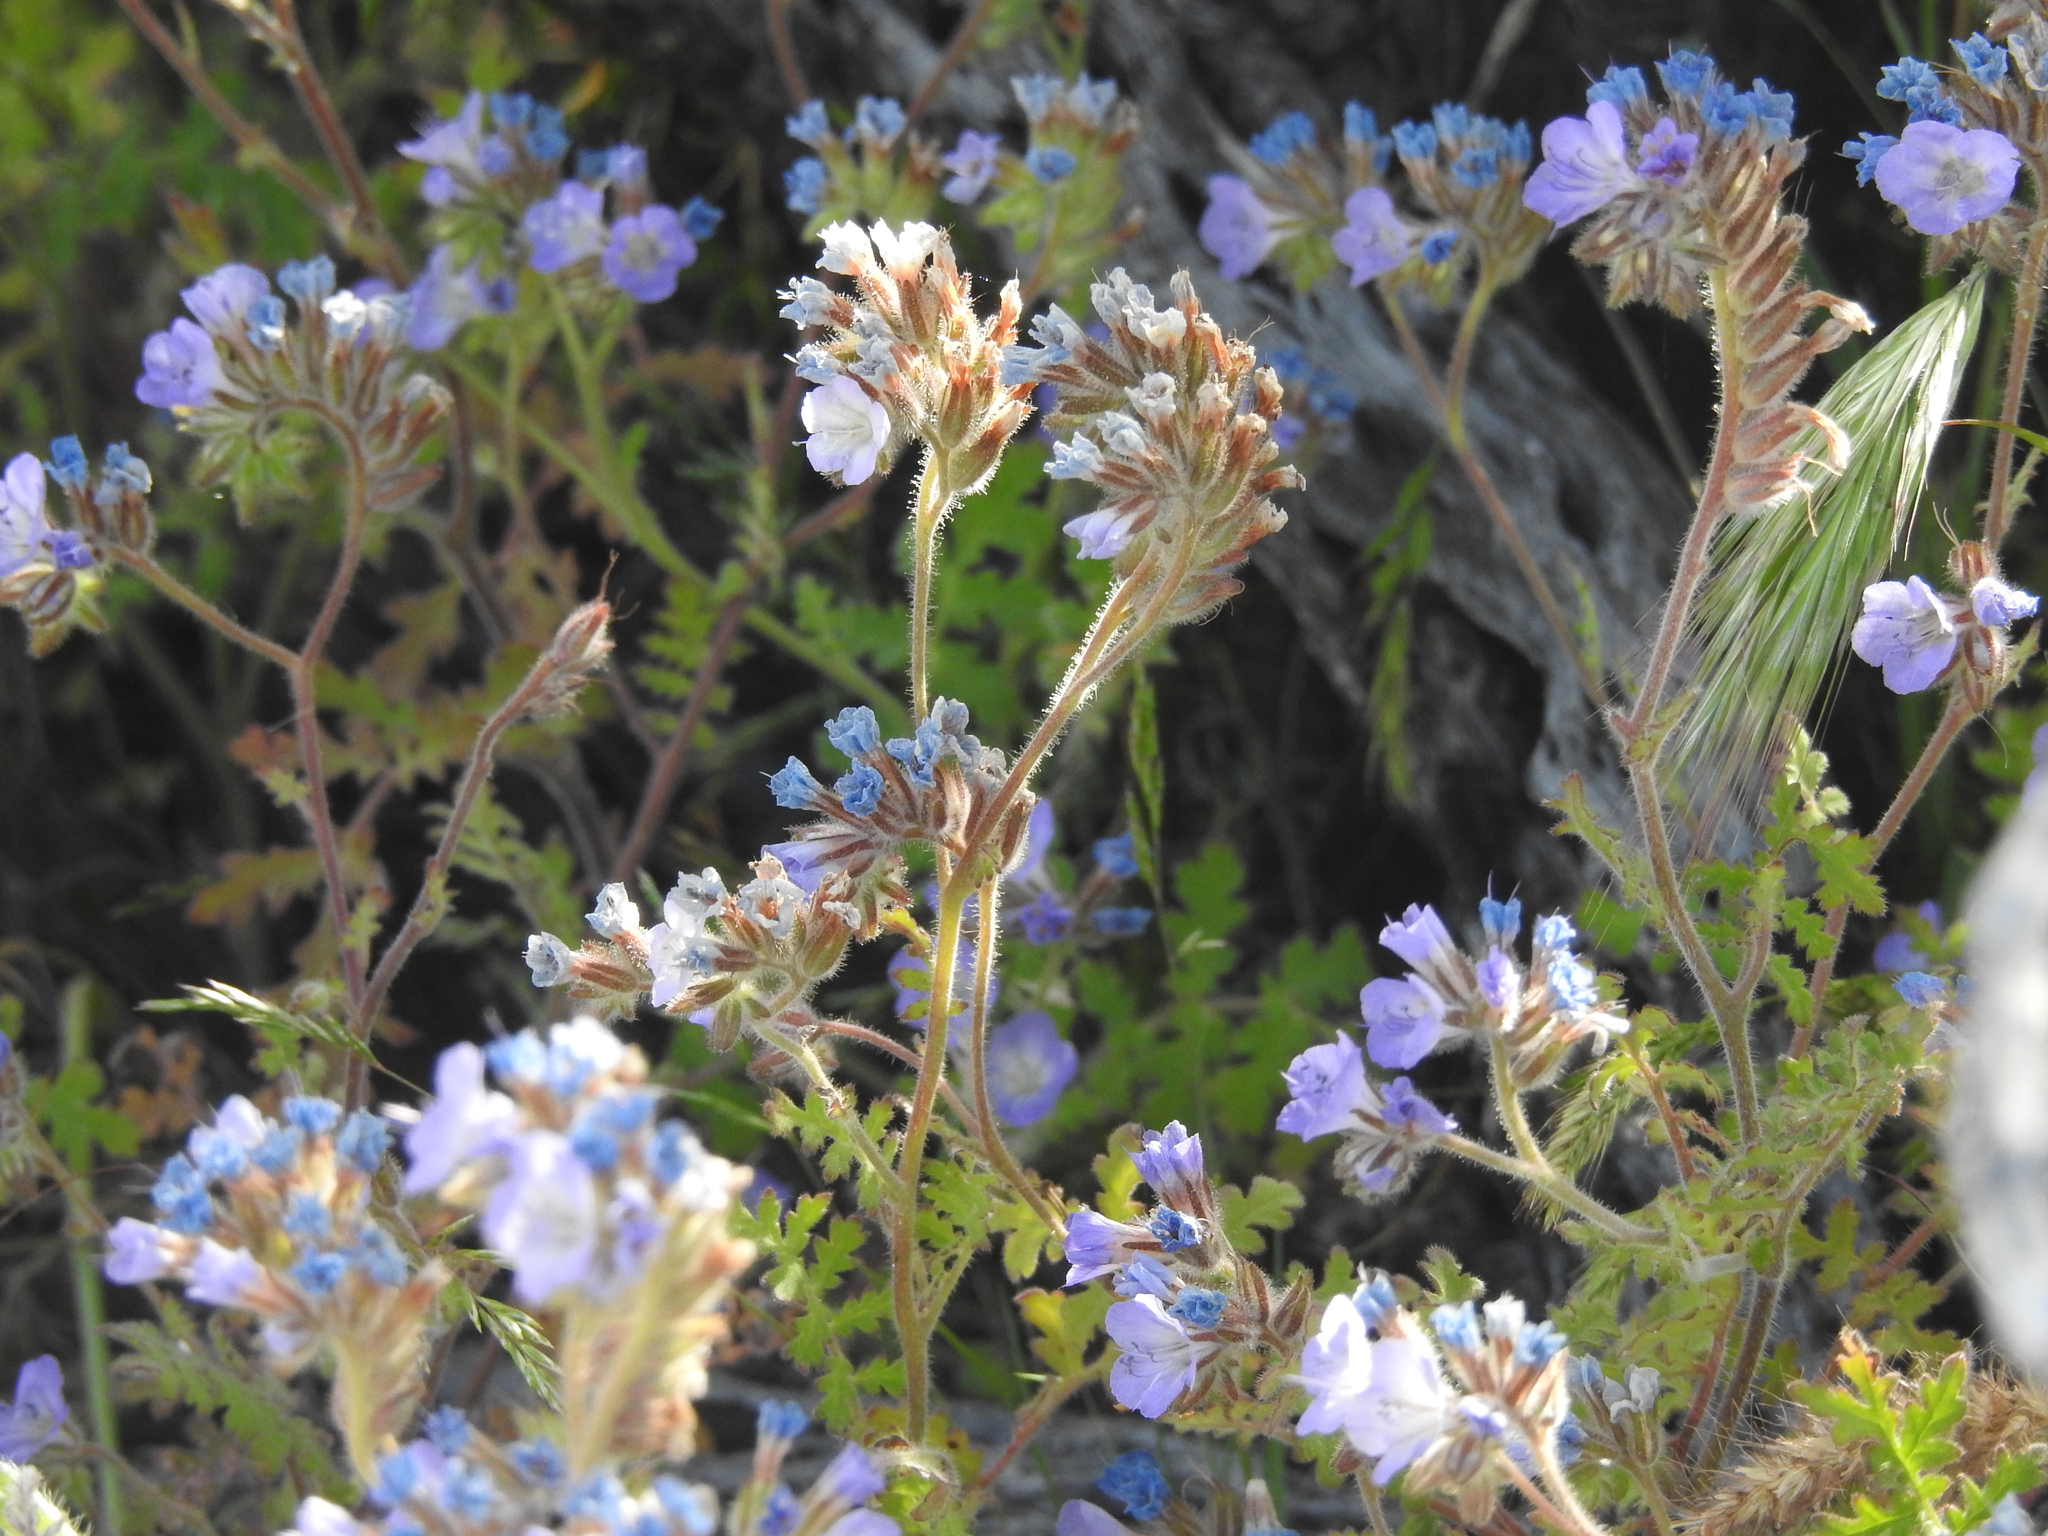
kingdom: Plantae
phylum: Tracheophyta
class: Magnoliopsida
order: Boraginales
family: Hydrophyllaceae
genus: Phacelia
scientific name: Phacelia distans
